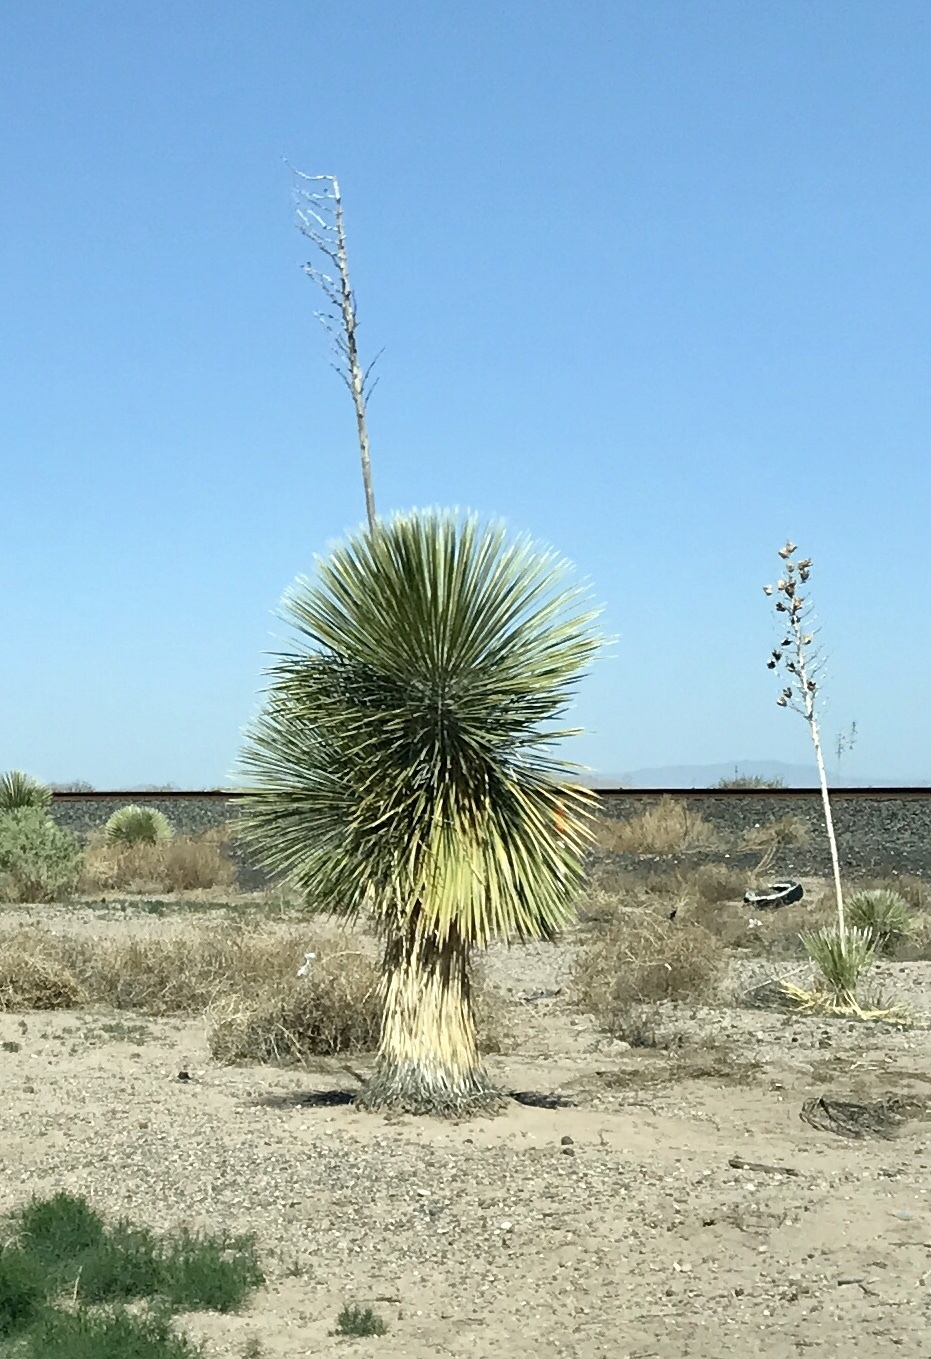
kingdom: Plantae
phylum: Tracheophyta
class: Liliopsida
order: Asparagales
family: Asparagaceae
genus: Yucca
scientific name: Yucca elata
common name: Palmella
